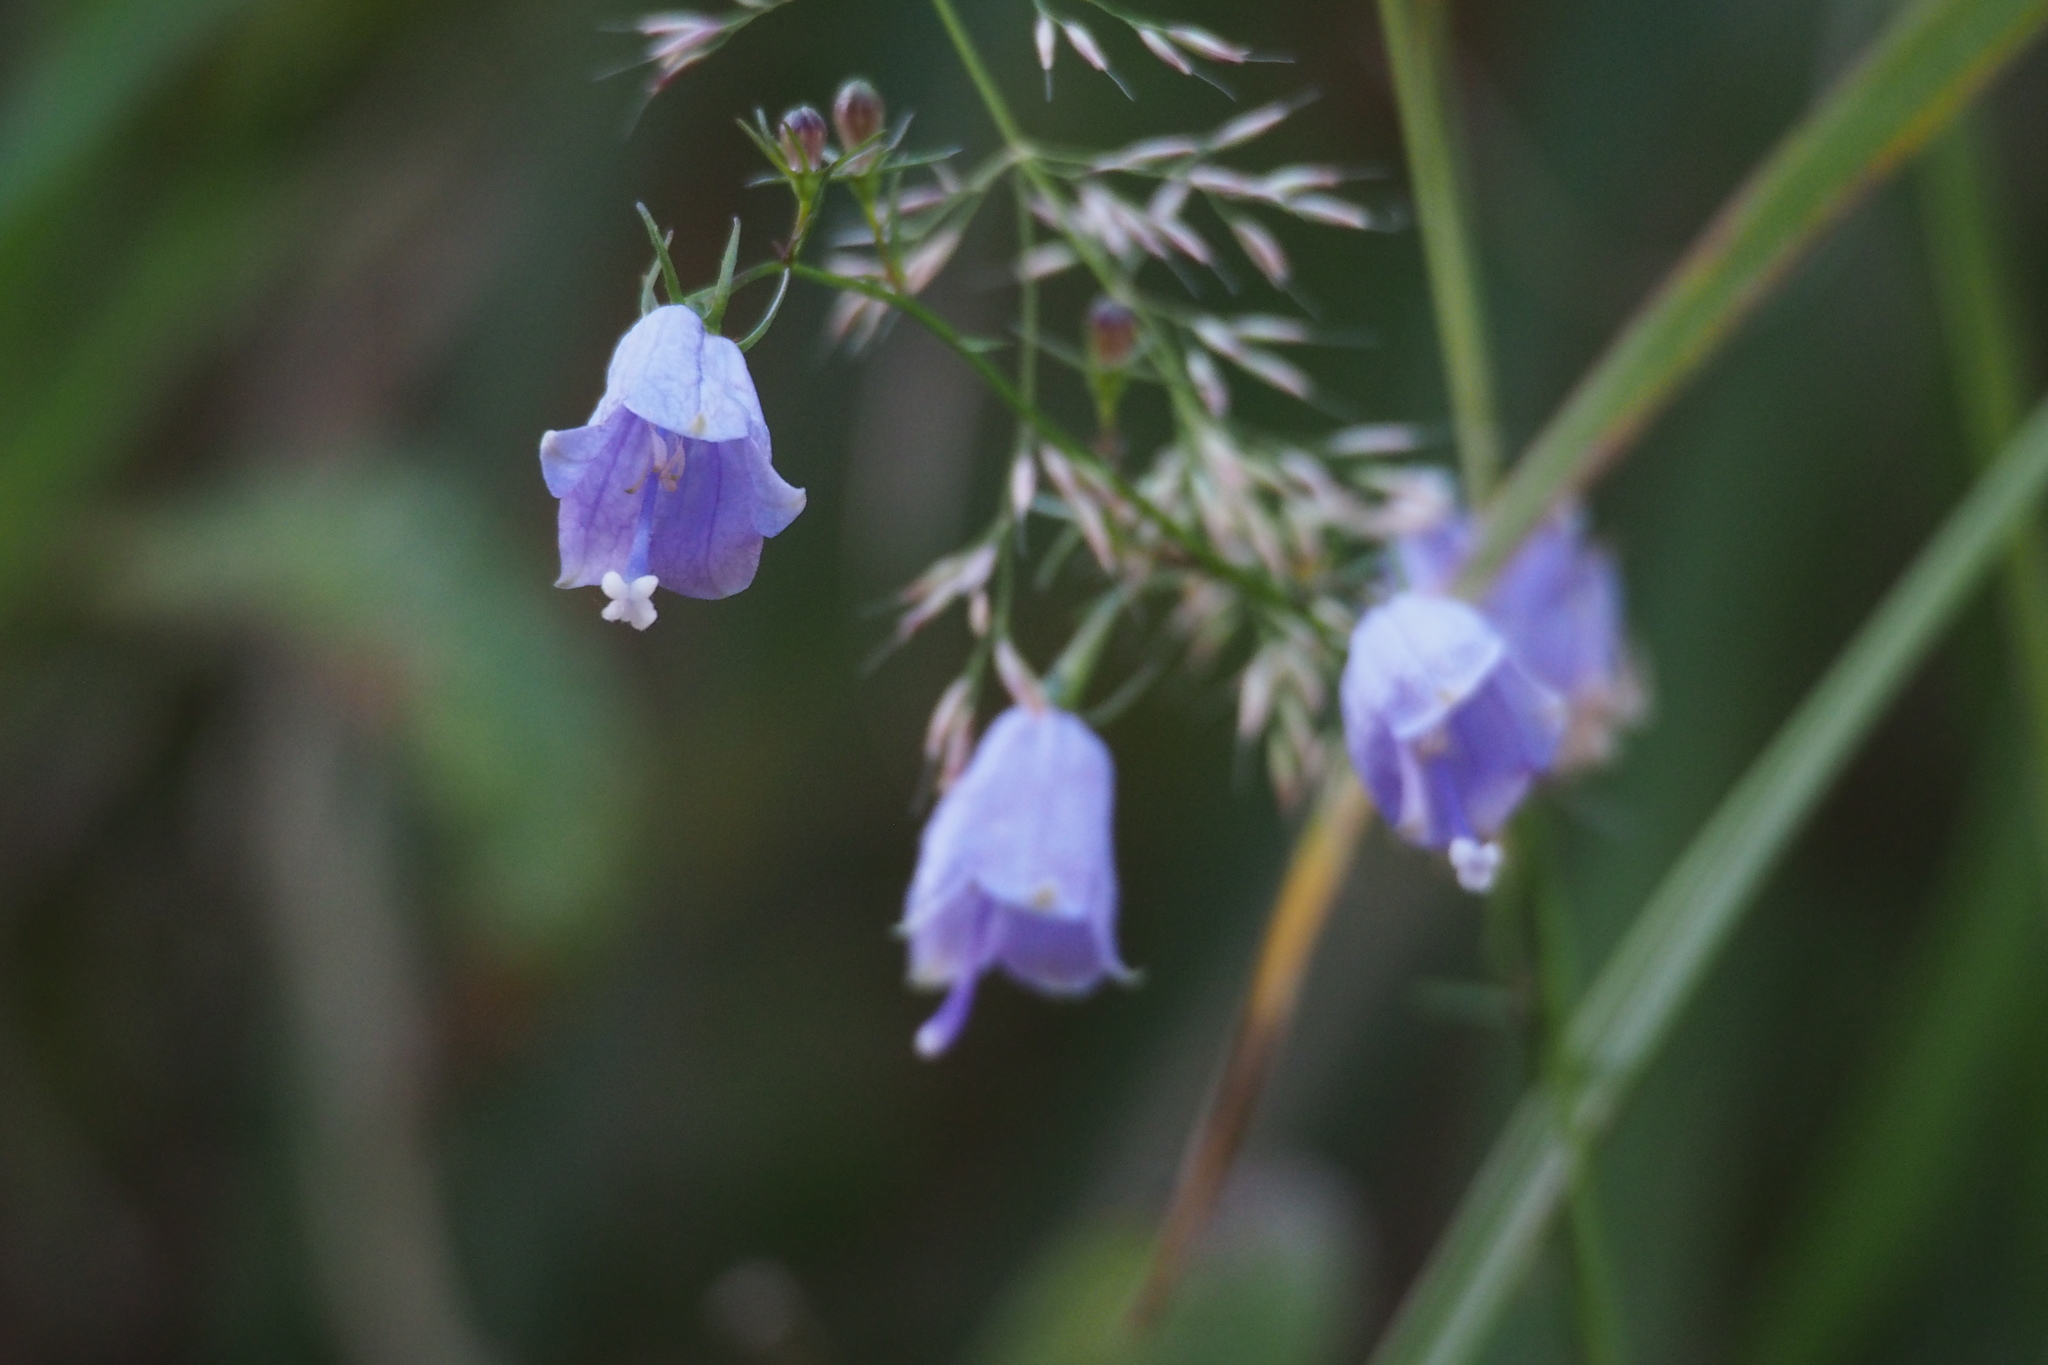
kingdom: Plantae
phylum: Tracheophyta
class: Magnoliopsida
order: Asterales
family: Campanulaceae
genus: Adenophora
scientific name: Adenophora triphylla
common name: Giant-bellflower
